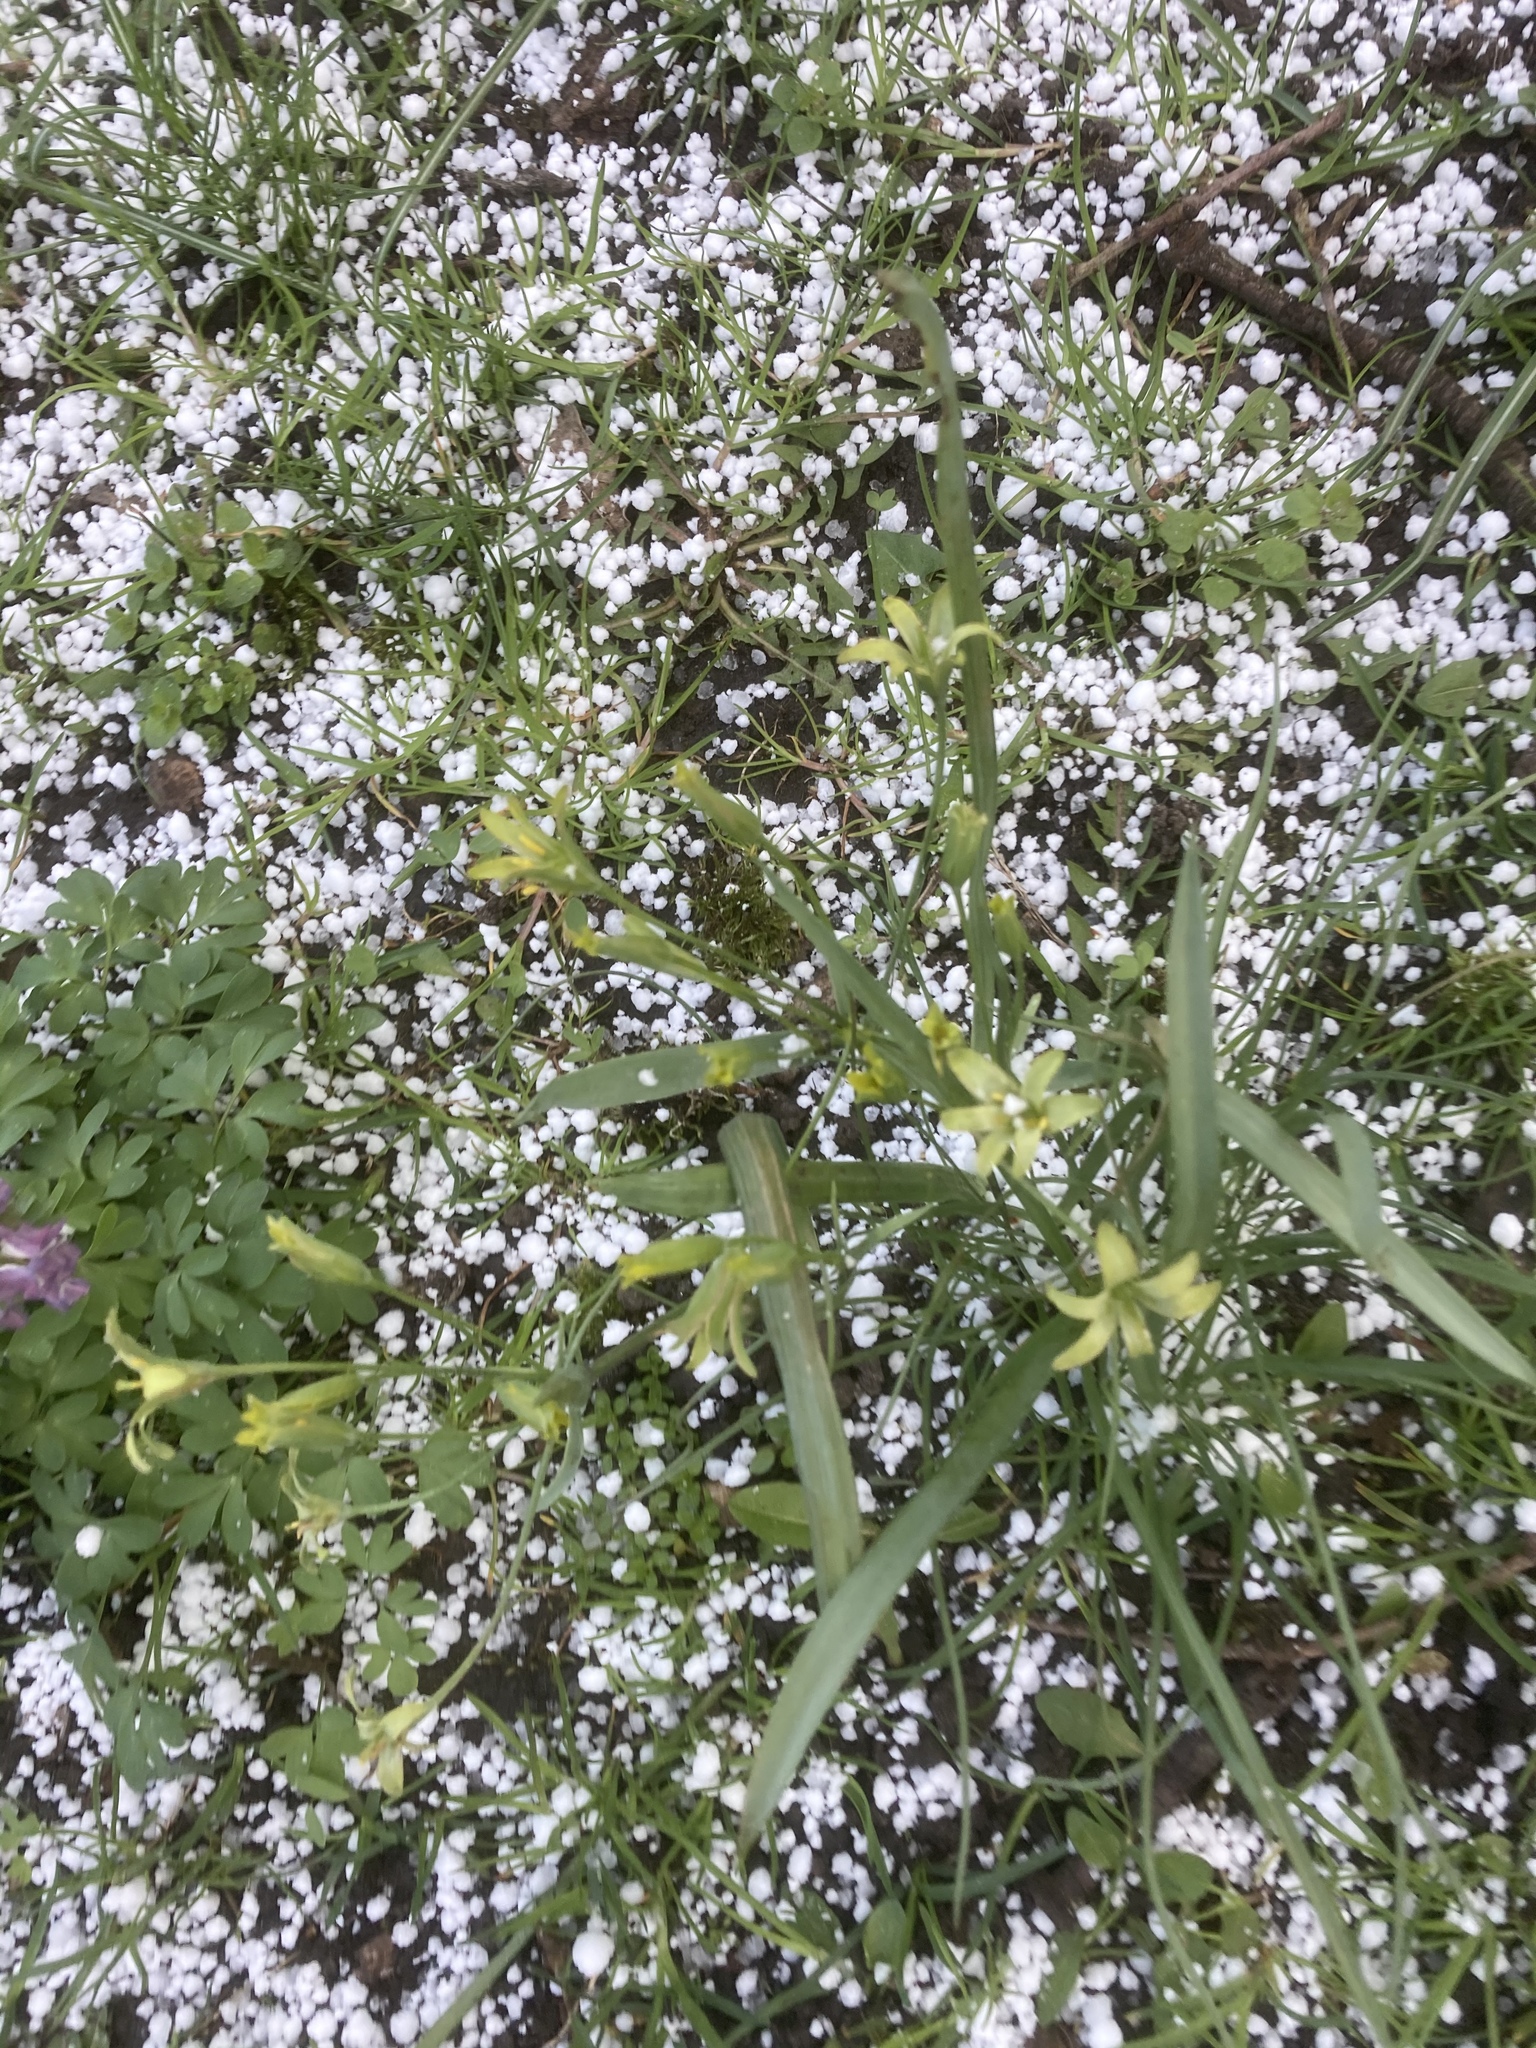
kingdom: Plantae
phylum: Tracheophyta
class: Liliopsida
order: Liliales
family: Liliaceae
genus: Gagea
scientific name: Gagea lutea
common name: Yellow star-of-bethlehem
